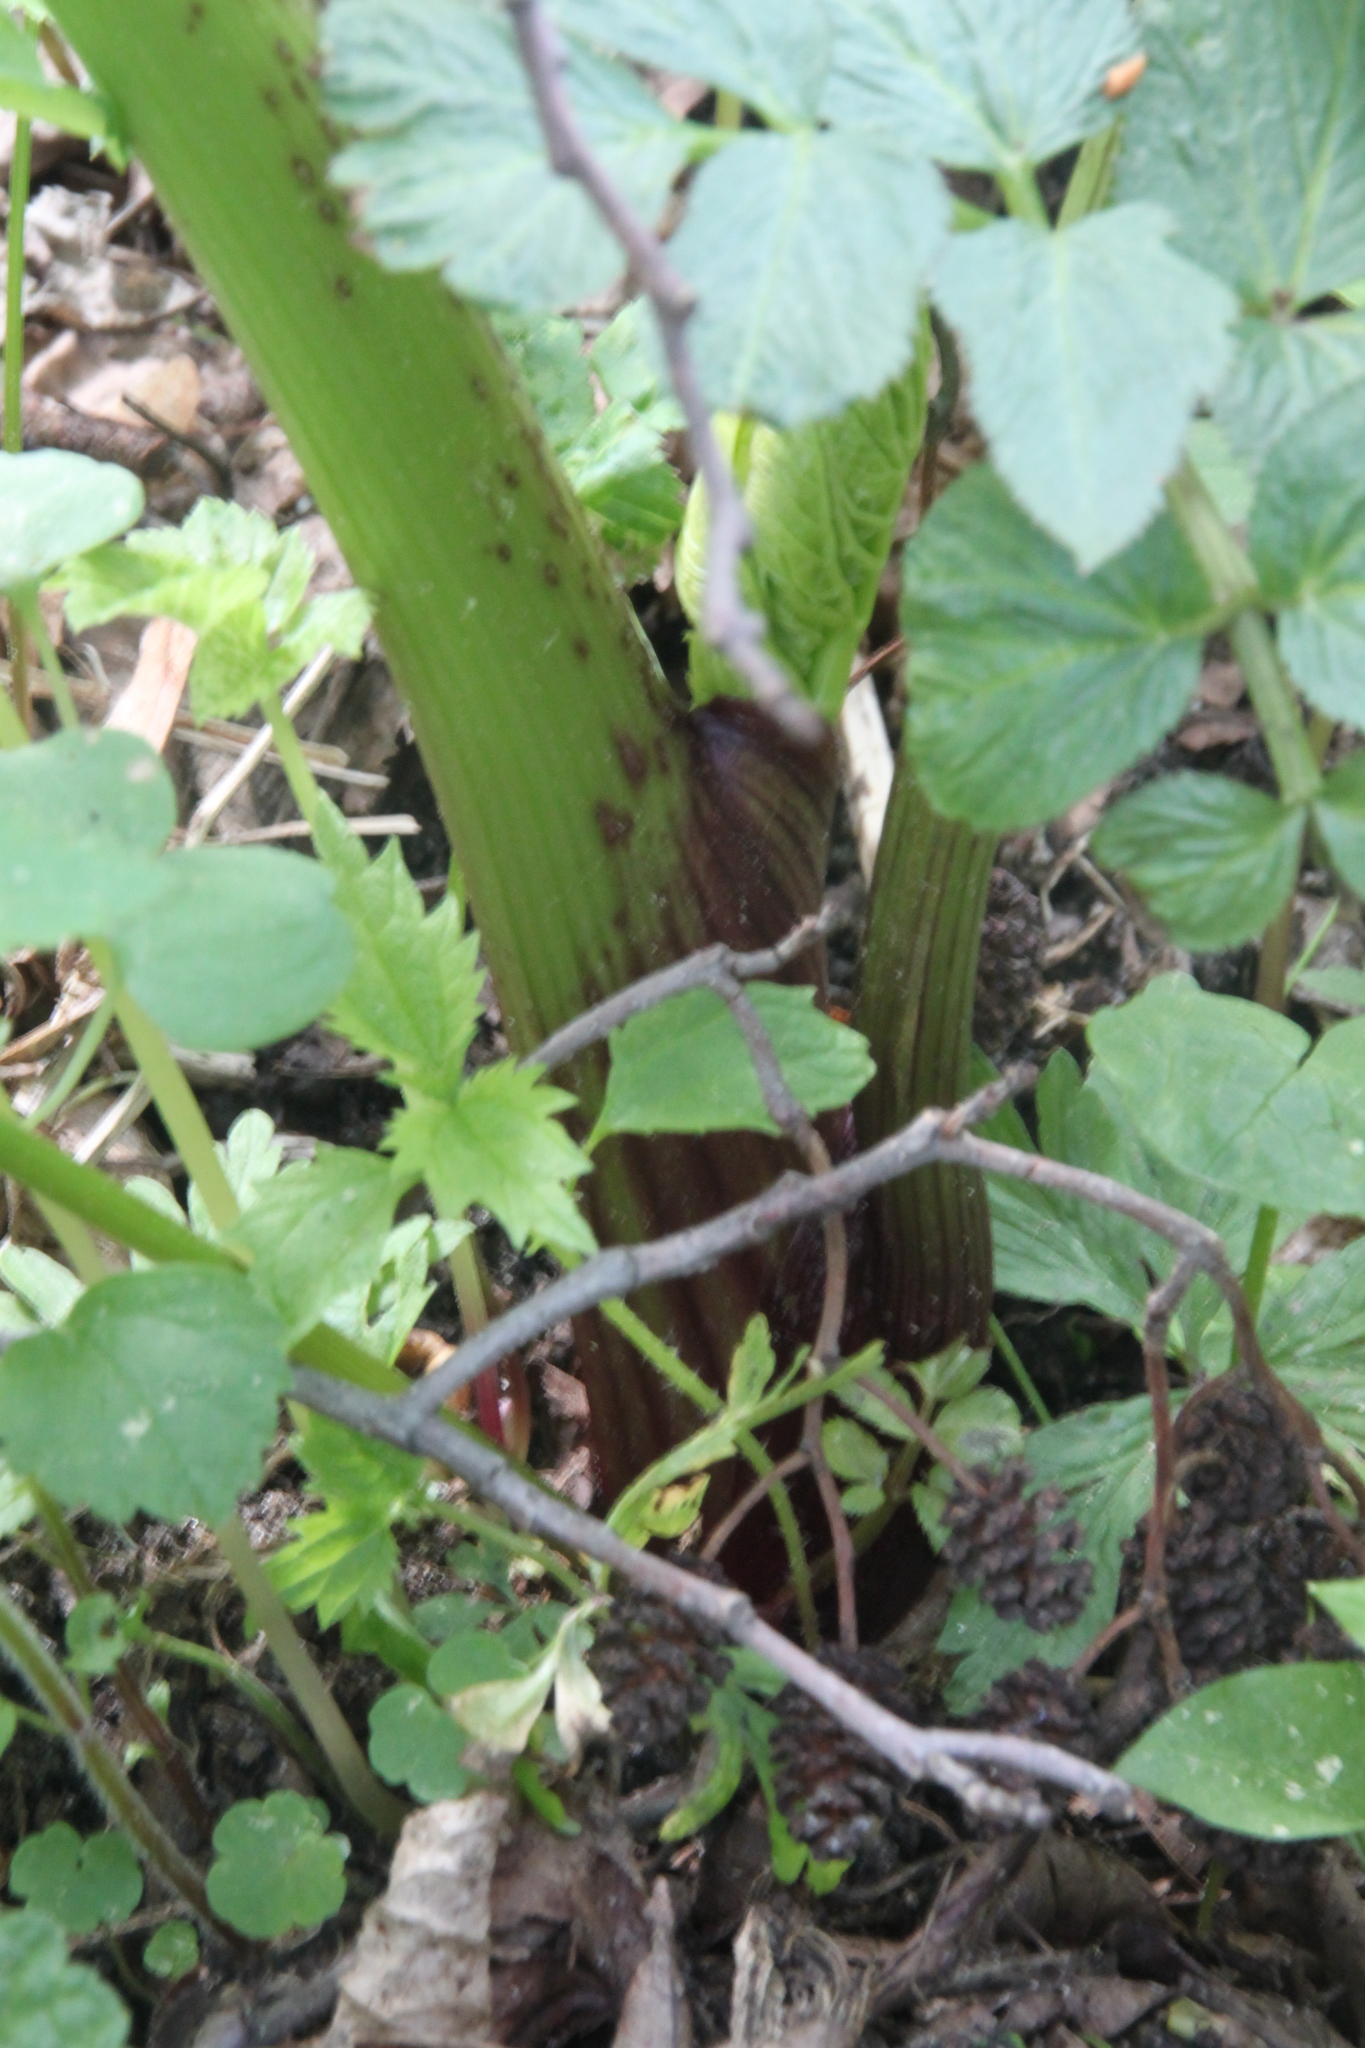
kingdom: Plantae
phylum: Tracheophyta
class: Magnoliopsida
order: Apiales
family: Apiaceae
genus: Angelica
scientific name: Angelica archangelica
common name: Garden angelica
